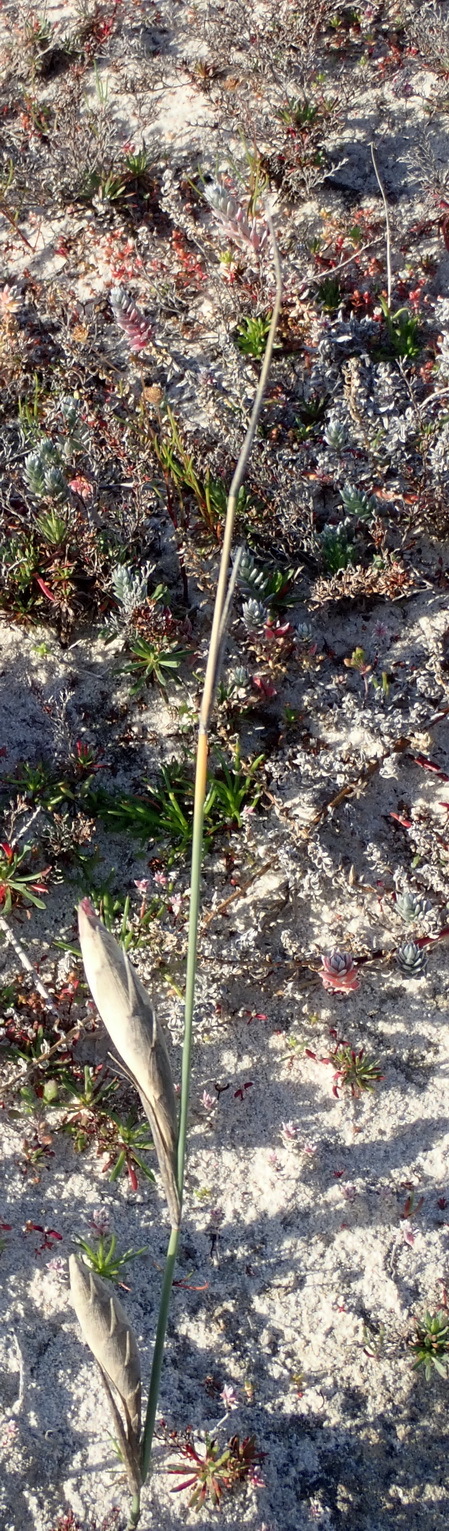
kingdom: Plantae
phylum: Tracheophyta
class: Liliopsida
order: Poales
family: Poaceae
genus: Ehrharta
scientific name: Ehrharta villosa
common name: Pyp grass
